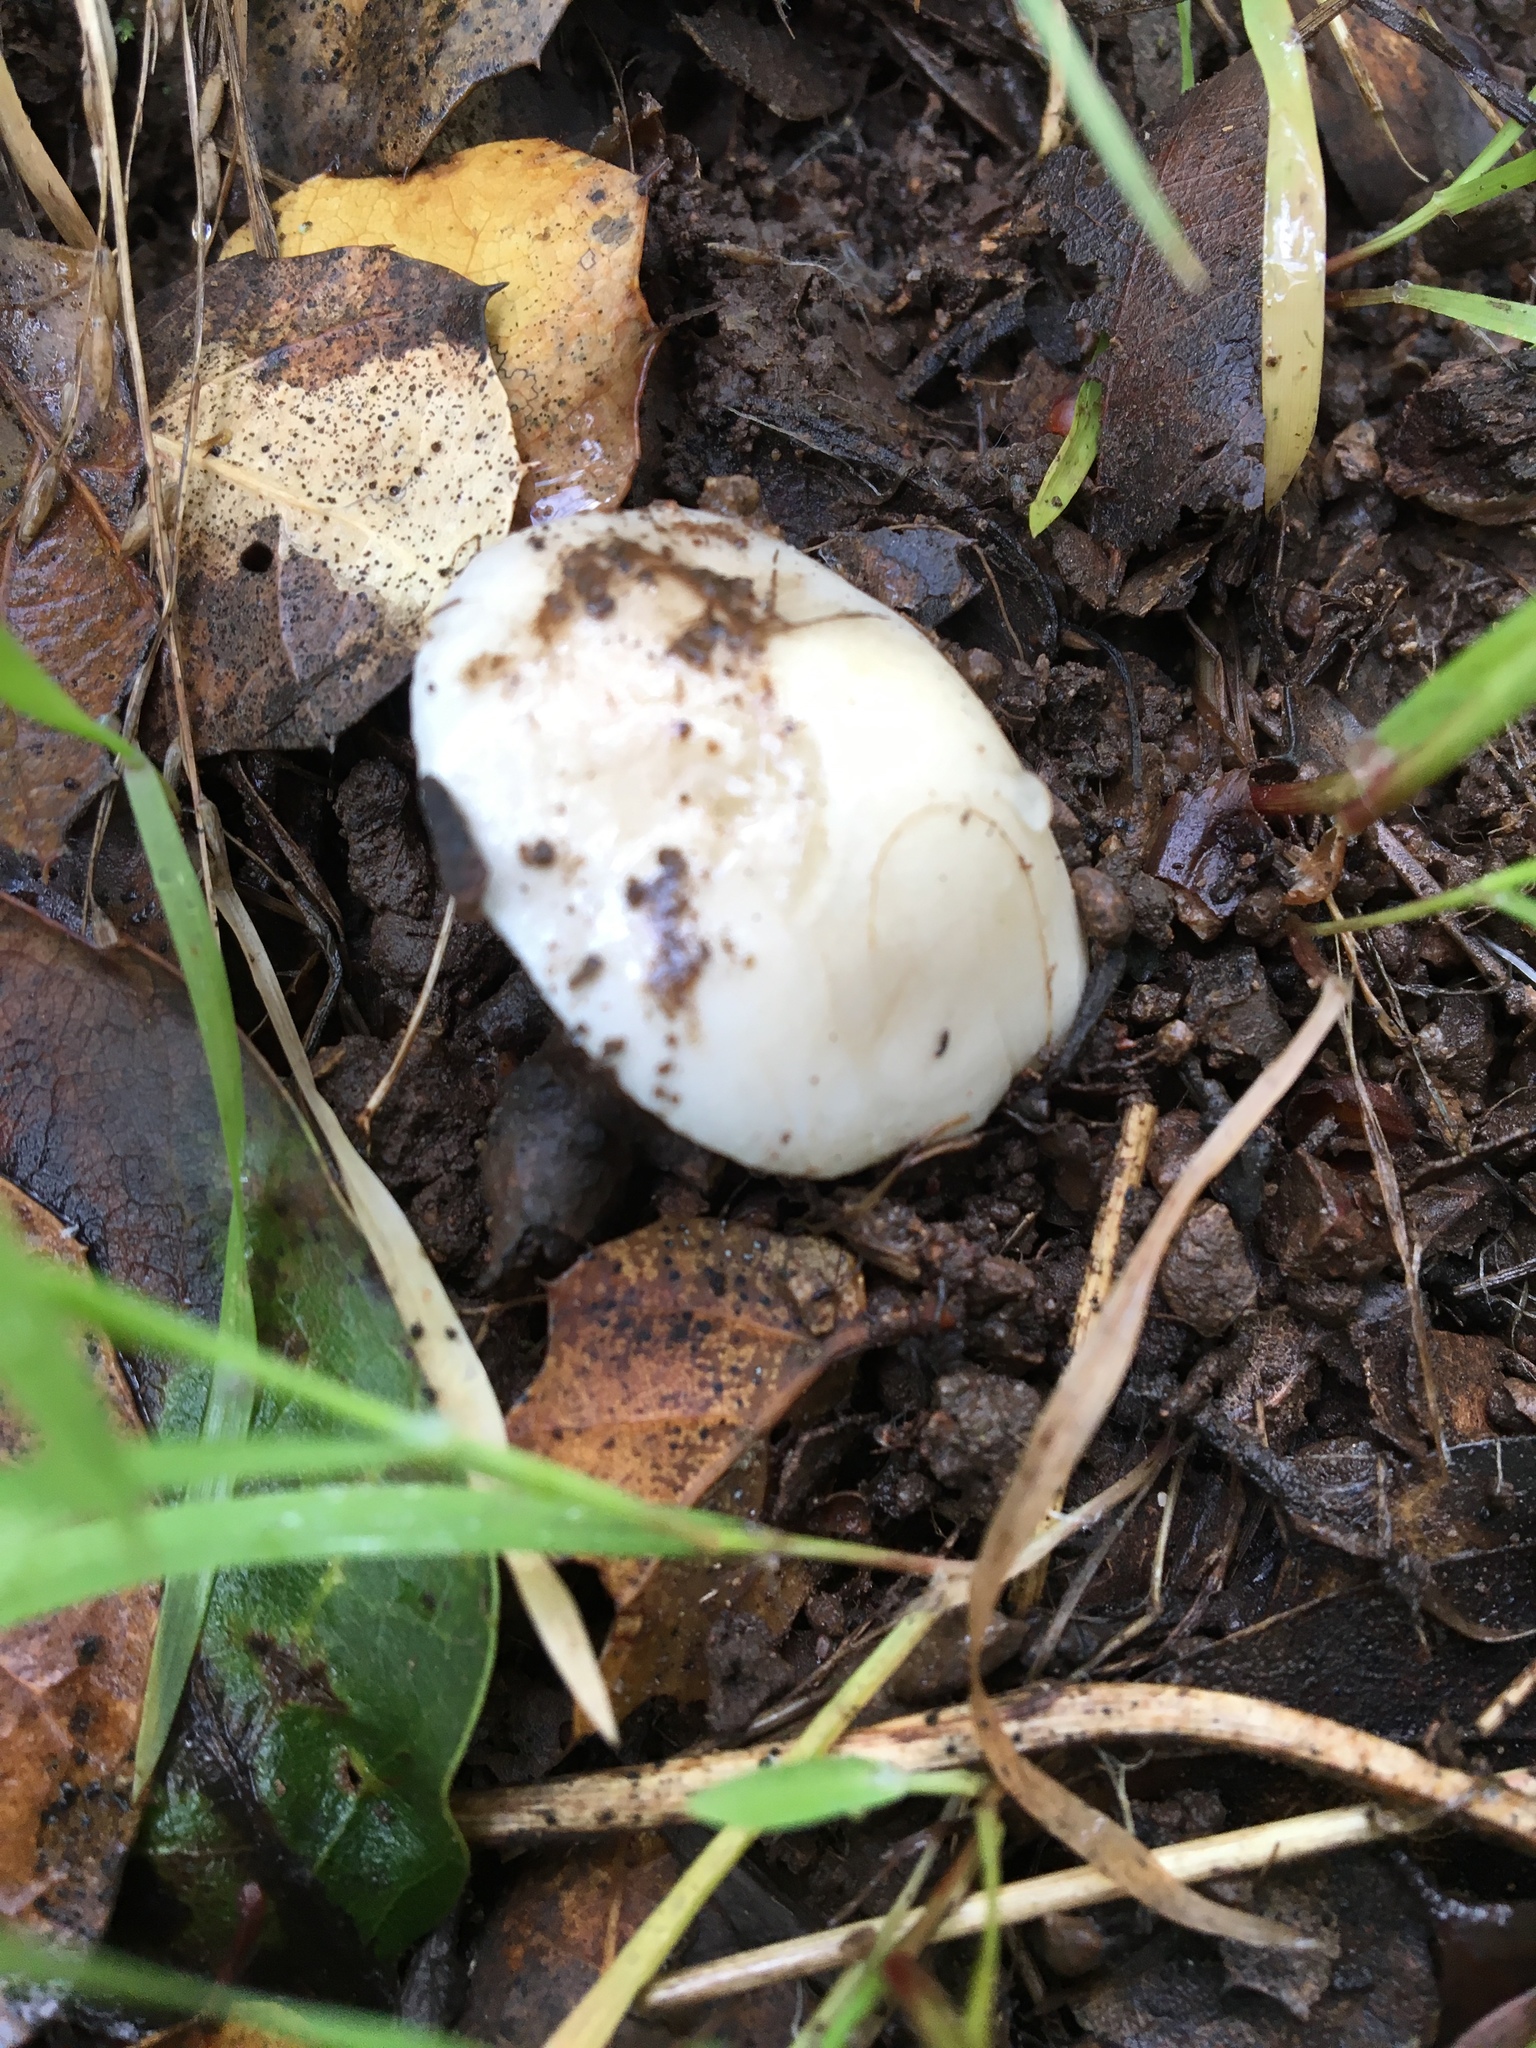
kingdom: Fungi
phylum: Basidiomycota
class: Agaricomycetes
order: Agaricales
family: Hygrophoraceae
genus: Hygrophorus
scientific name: Hygrophorus eburneus
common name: Ivory wax-cap
